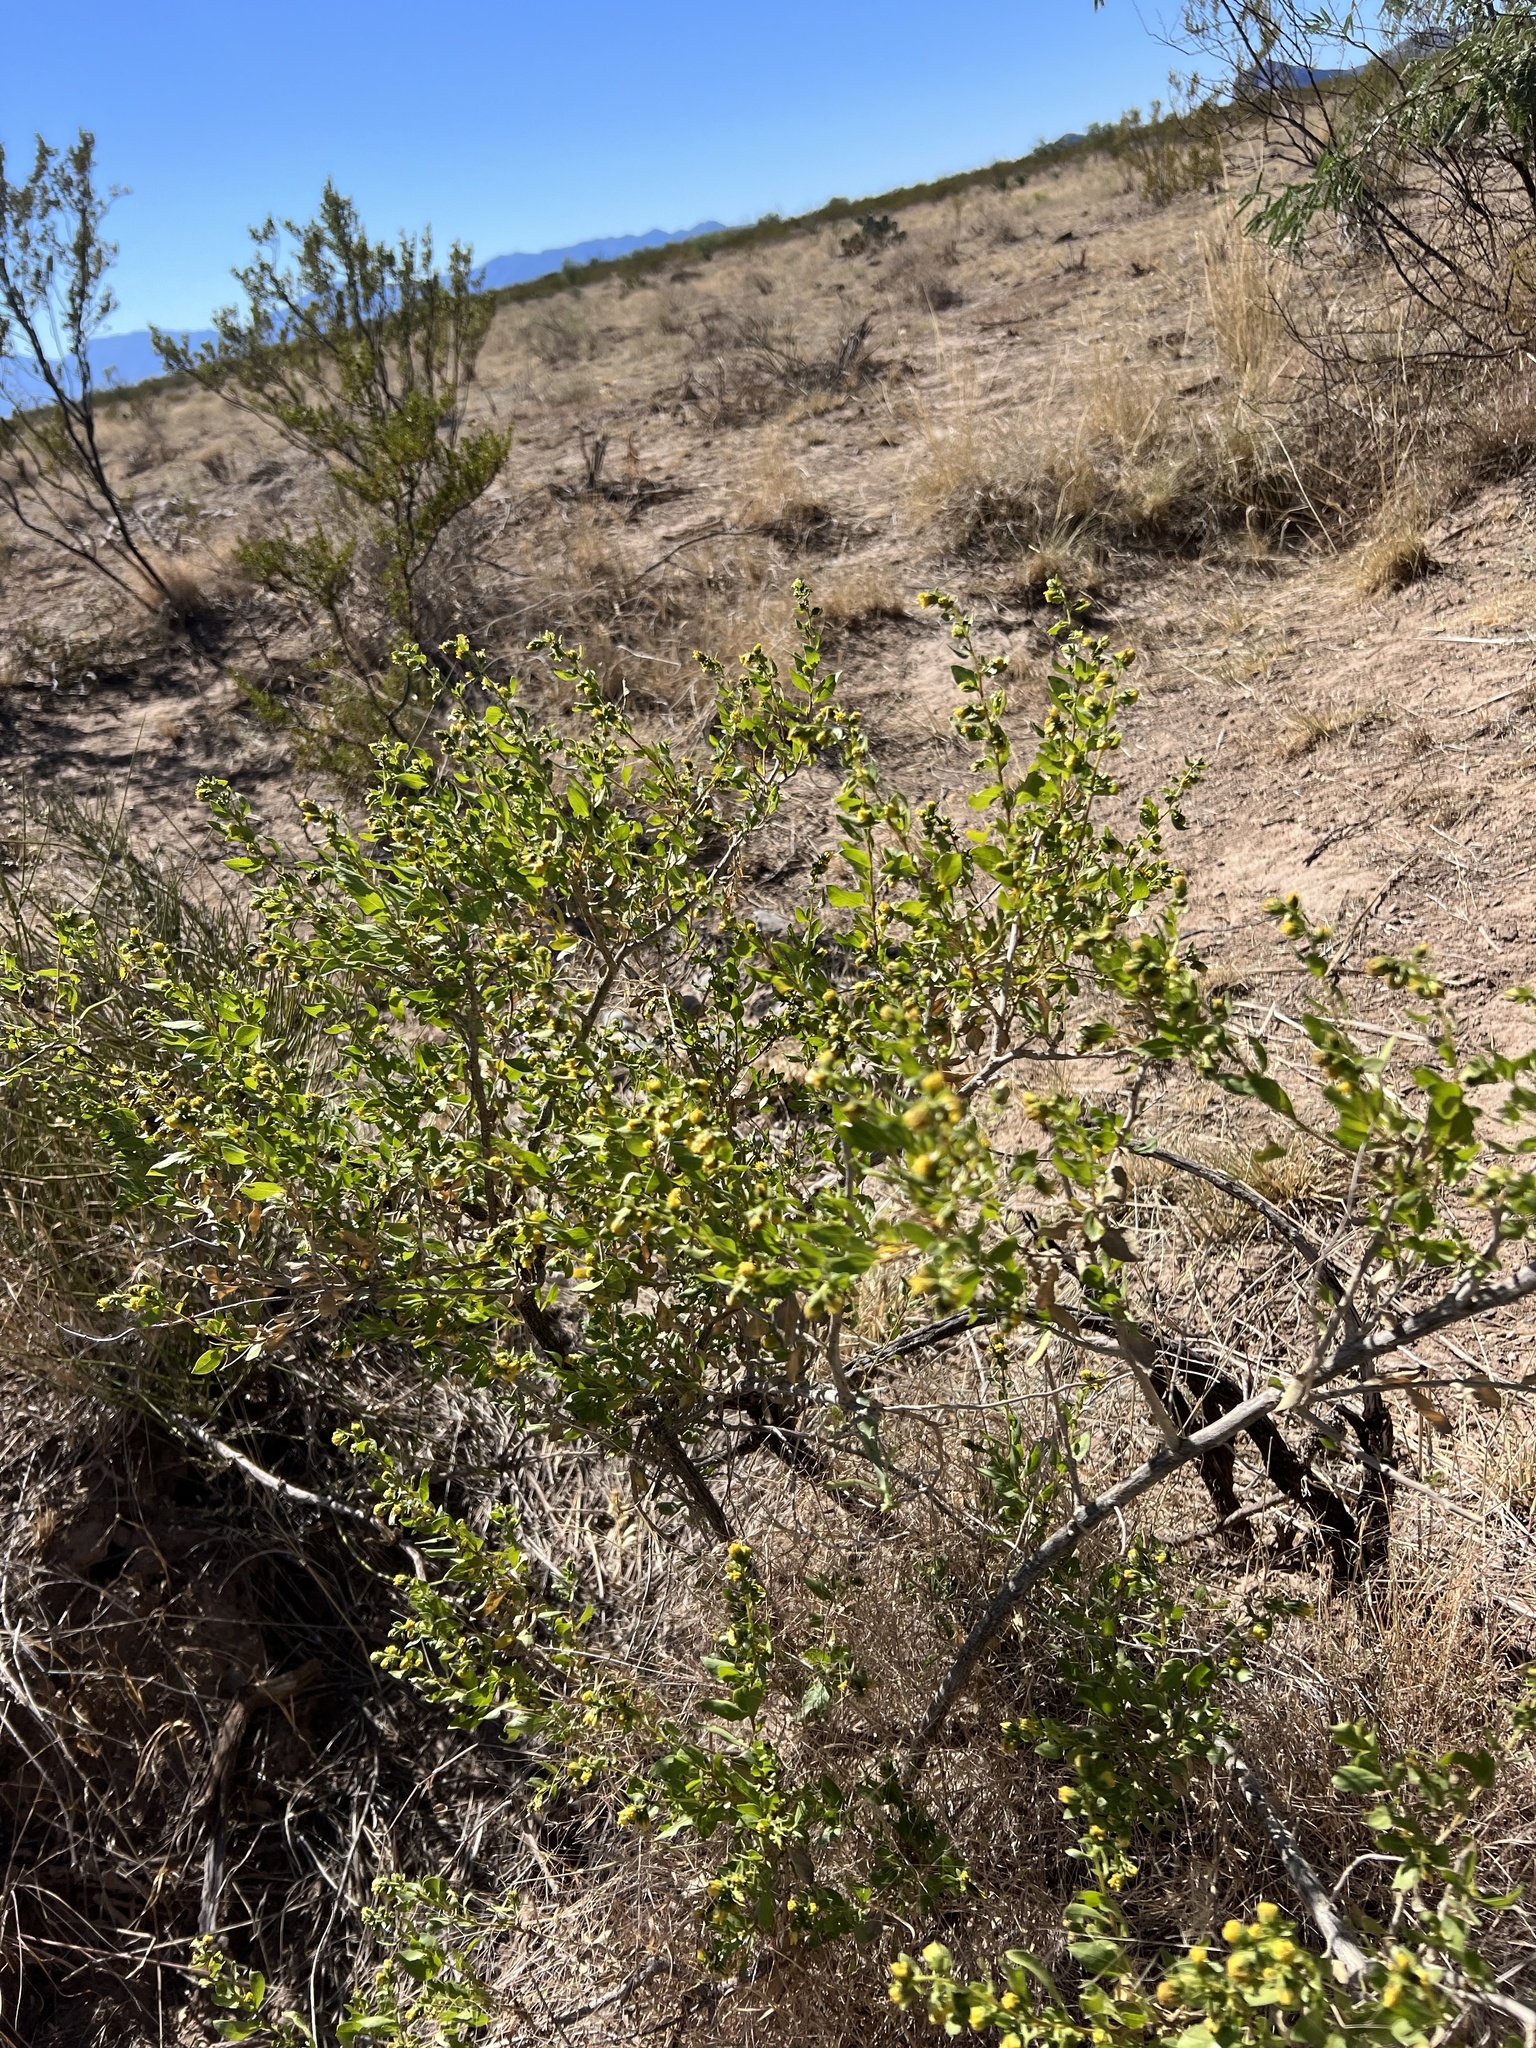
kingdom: Plantae
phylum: Tracheophyta
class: Magnoliopsida
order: Asterales
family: Asteraceae
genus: Flourensia
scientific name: Flourensia cernua
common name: Varnishbush
